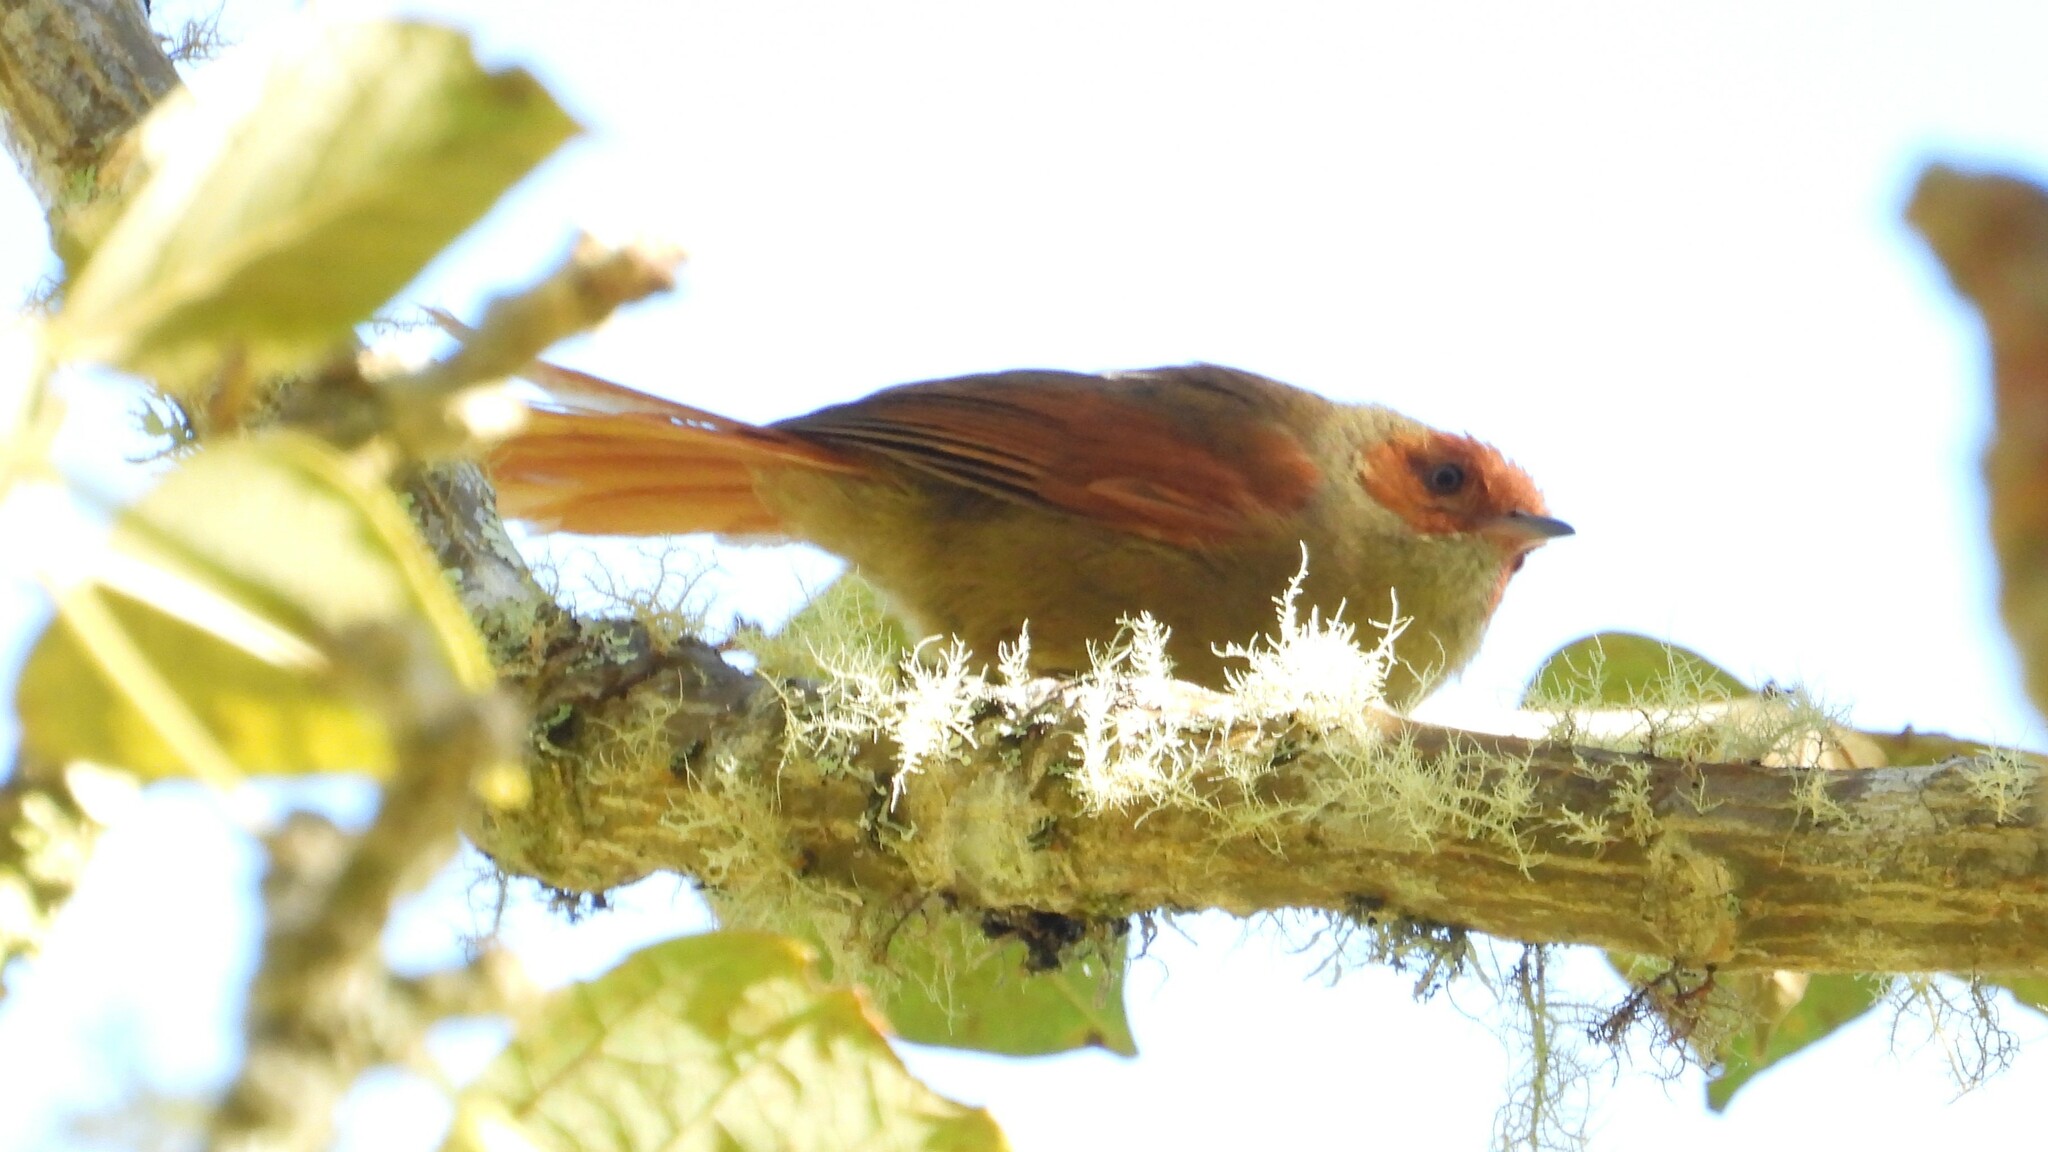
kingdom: Animalia
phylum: Chordata
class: Aves
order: Passeriformes
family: Furnariidae
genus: Cranioleuca
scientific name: Cranioleuca erythrops
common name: Red-faced spinetail
